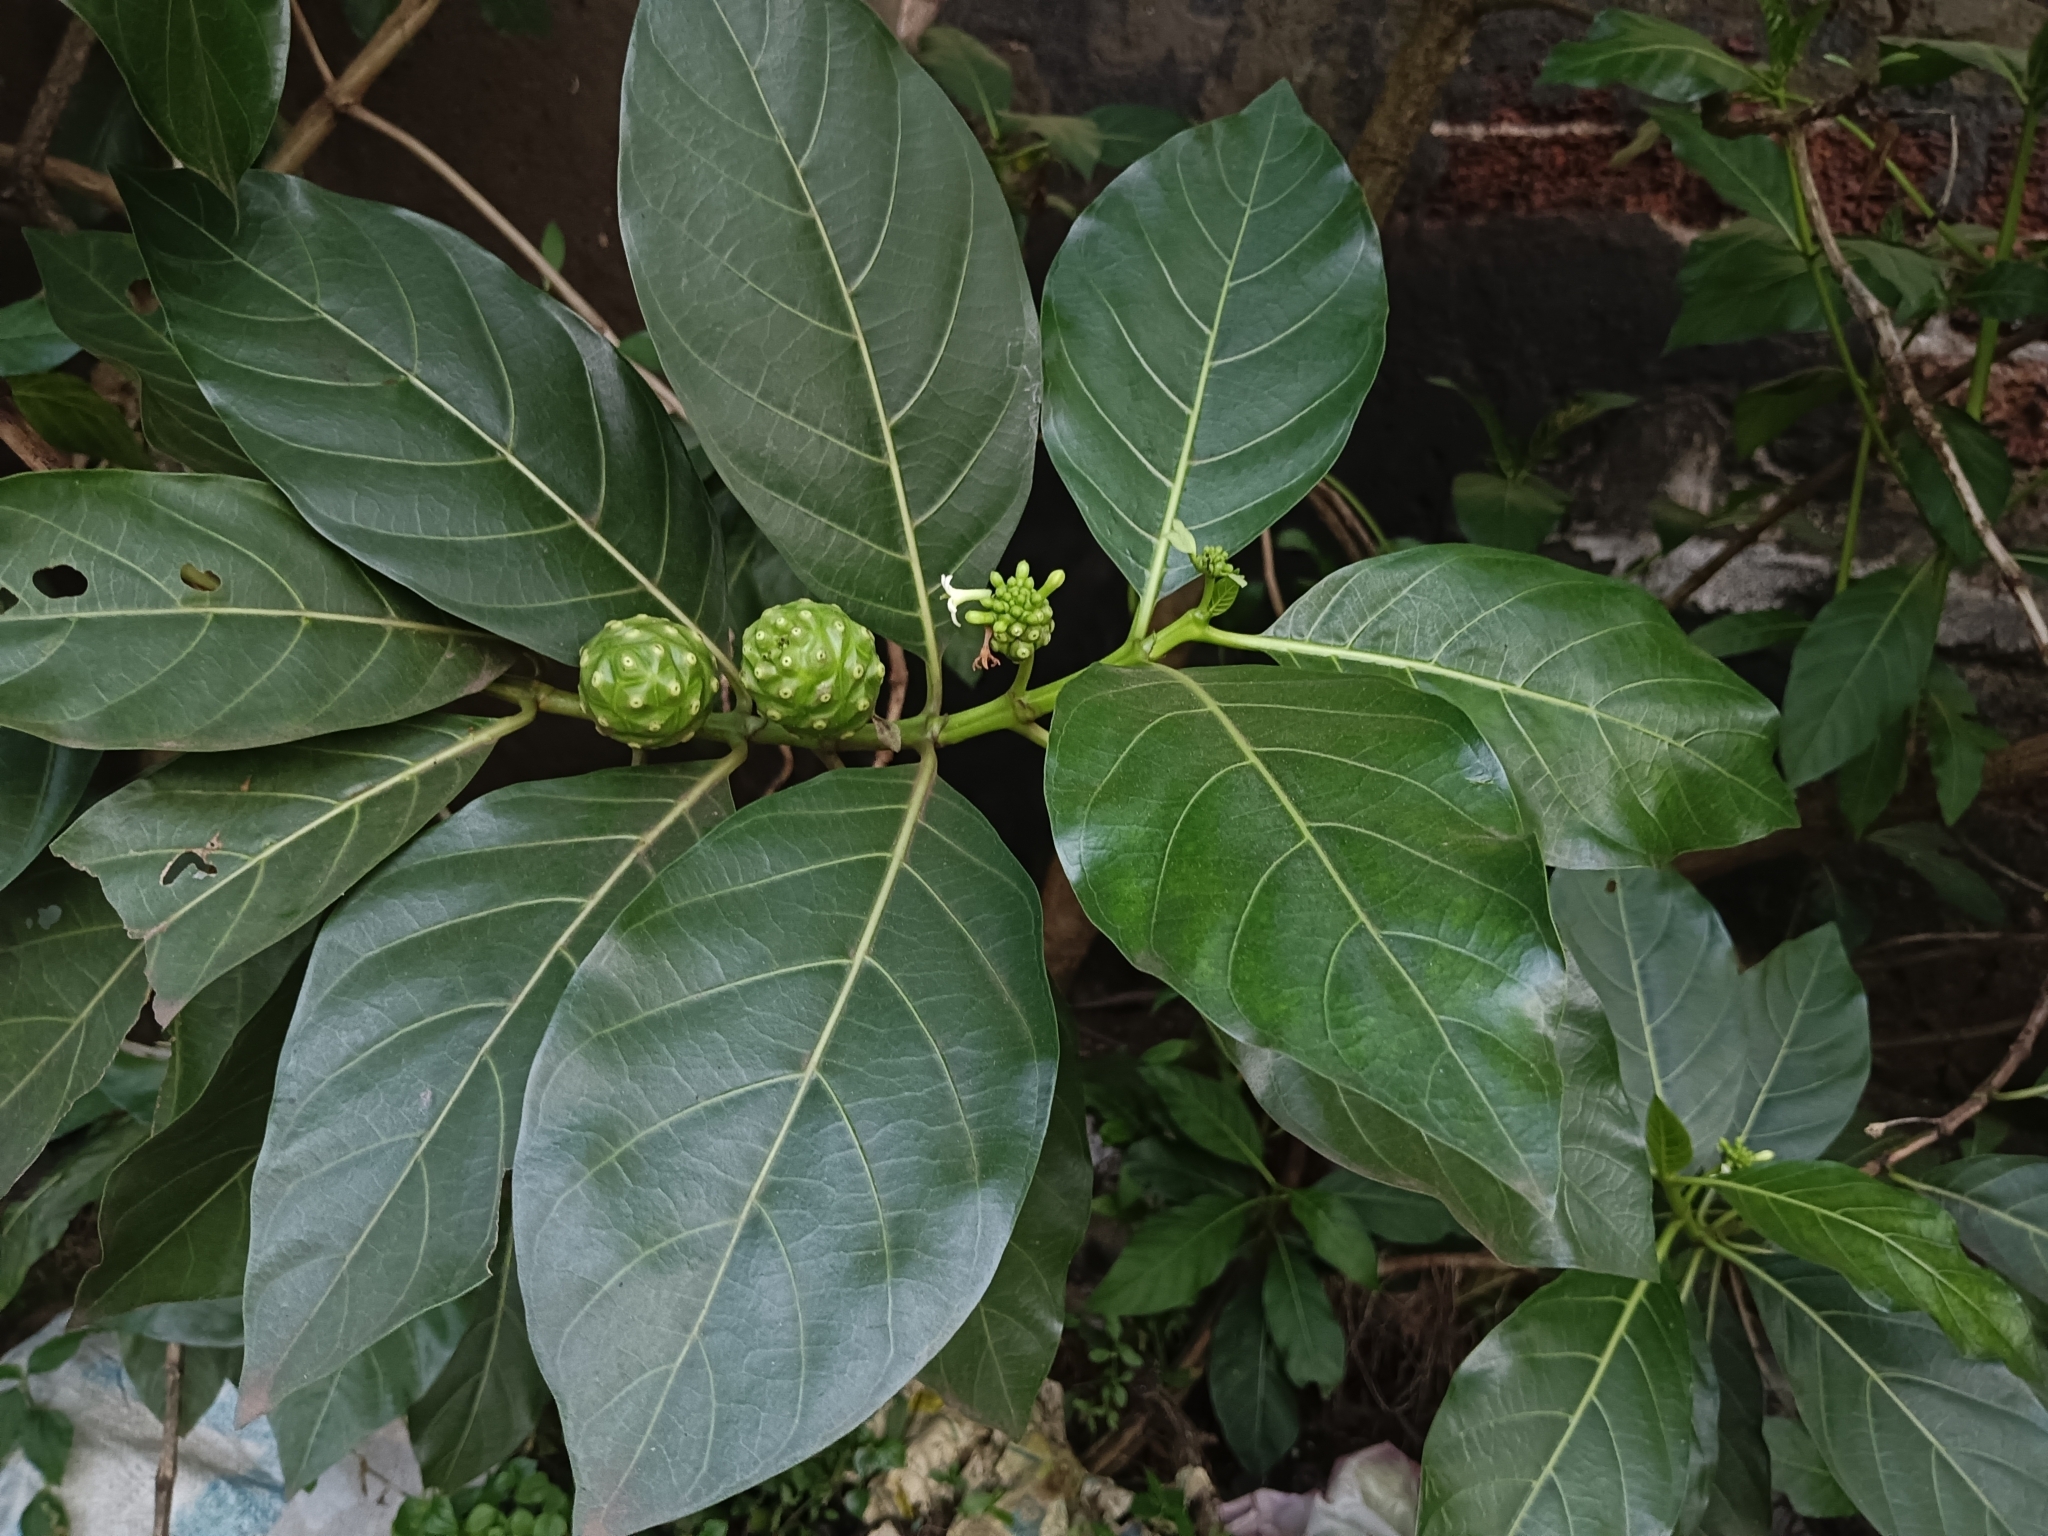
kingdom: Plantae
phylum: Tracheophyta
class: Magnoliopsida
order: Gentianales
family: Rubiaceae
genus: Morinda
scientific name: Morinda citrifolia
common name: Indian-mulberry
